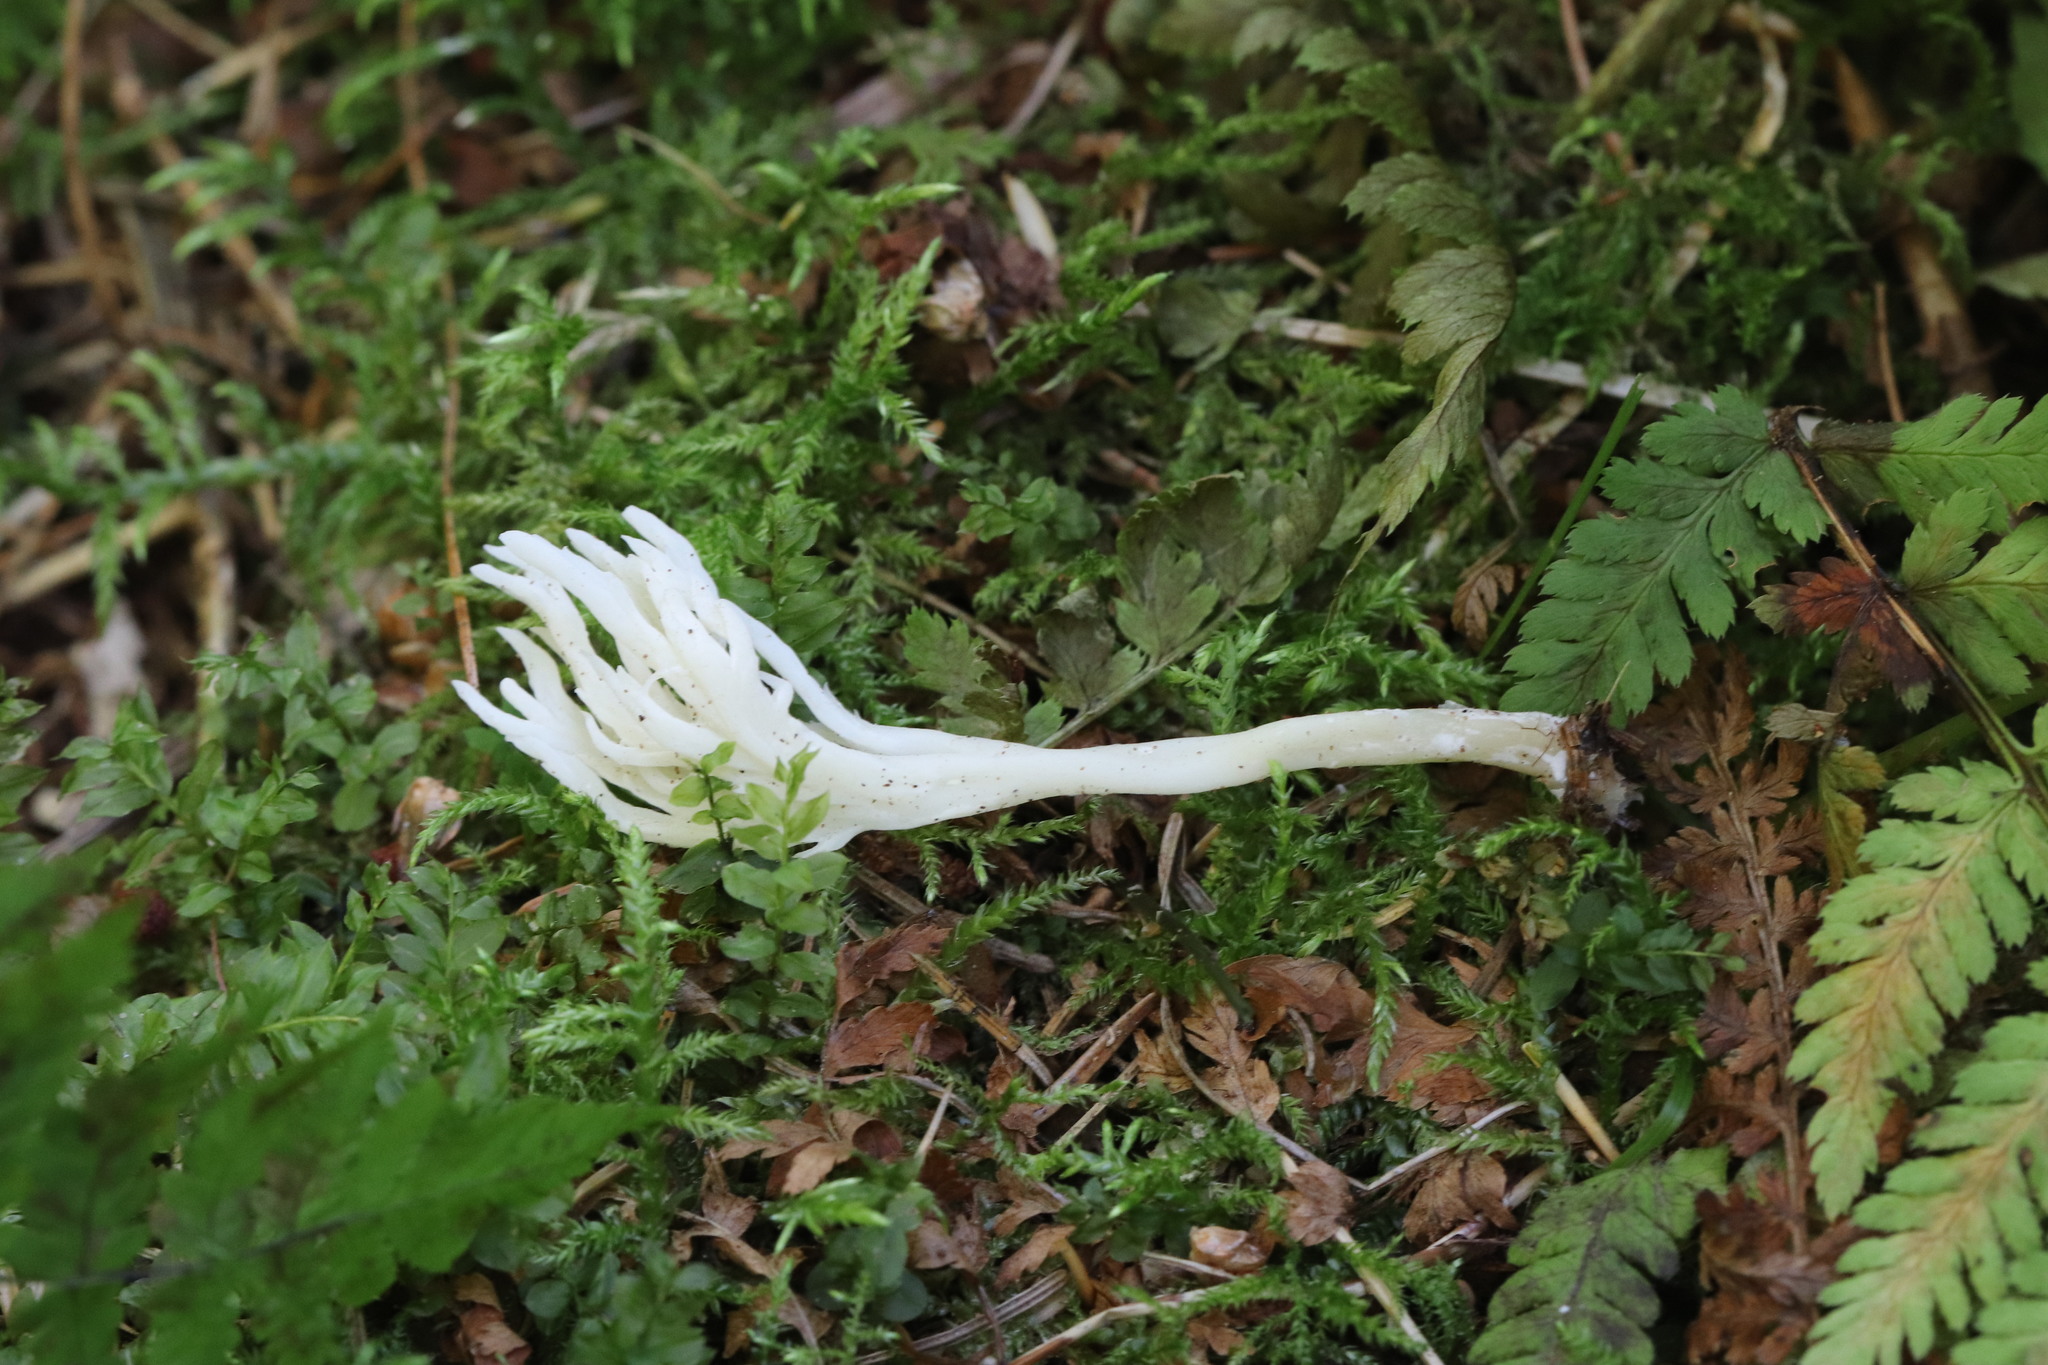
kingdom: Fungi
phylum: Basidiomycota
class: Agaricomycetes
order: Cantharellales
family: Hydnaceae
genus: Clavulina
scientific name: Clavulina rugosa
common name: Wrinkled club
